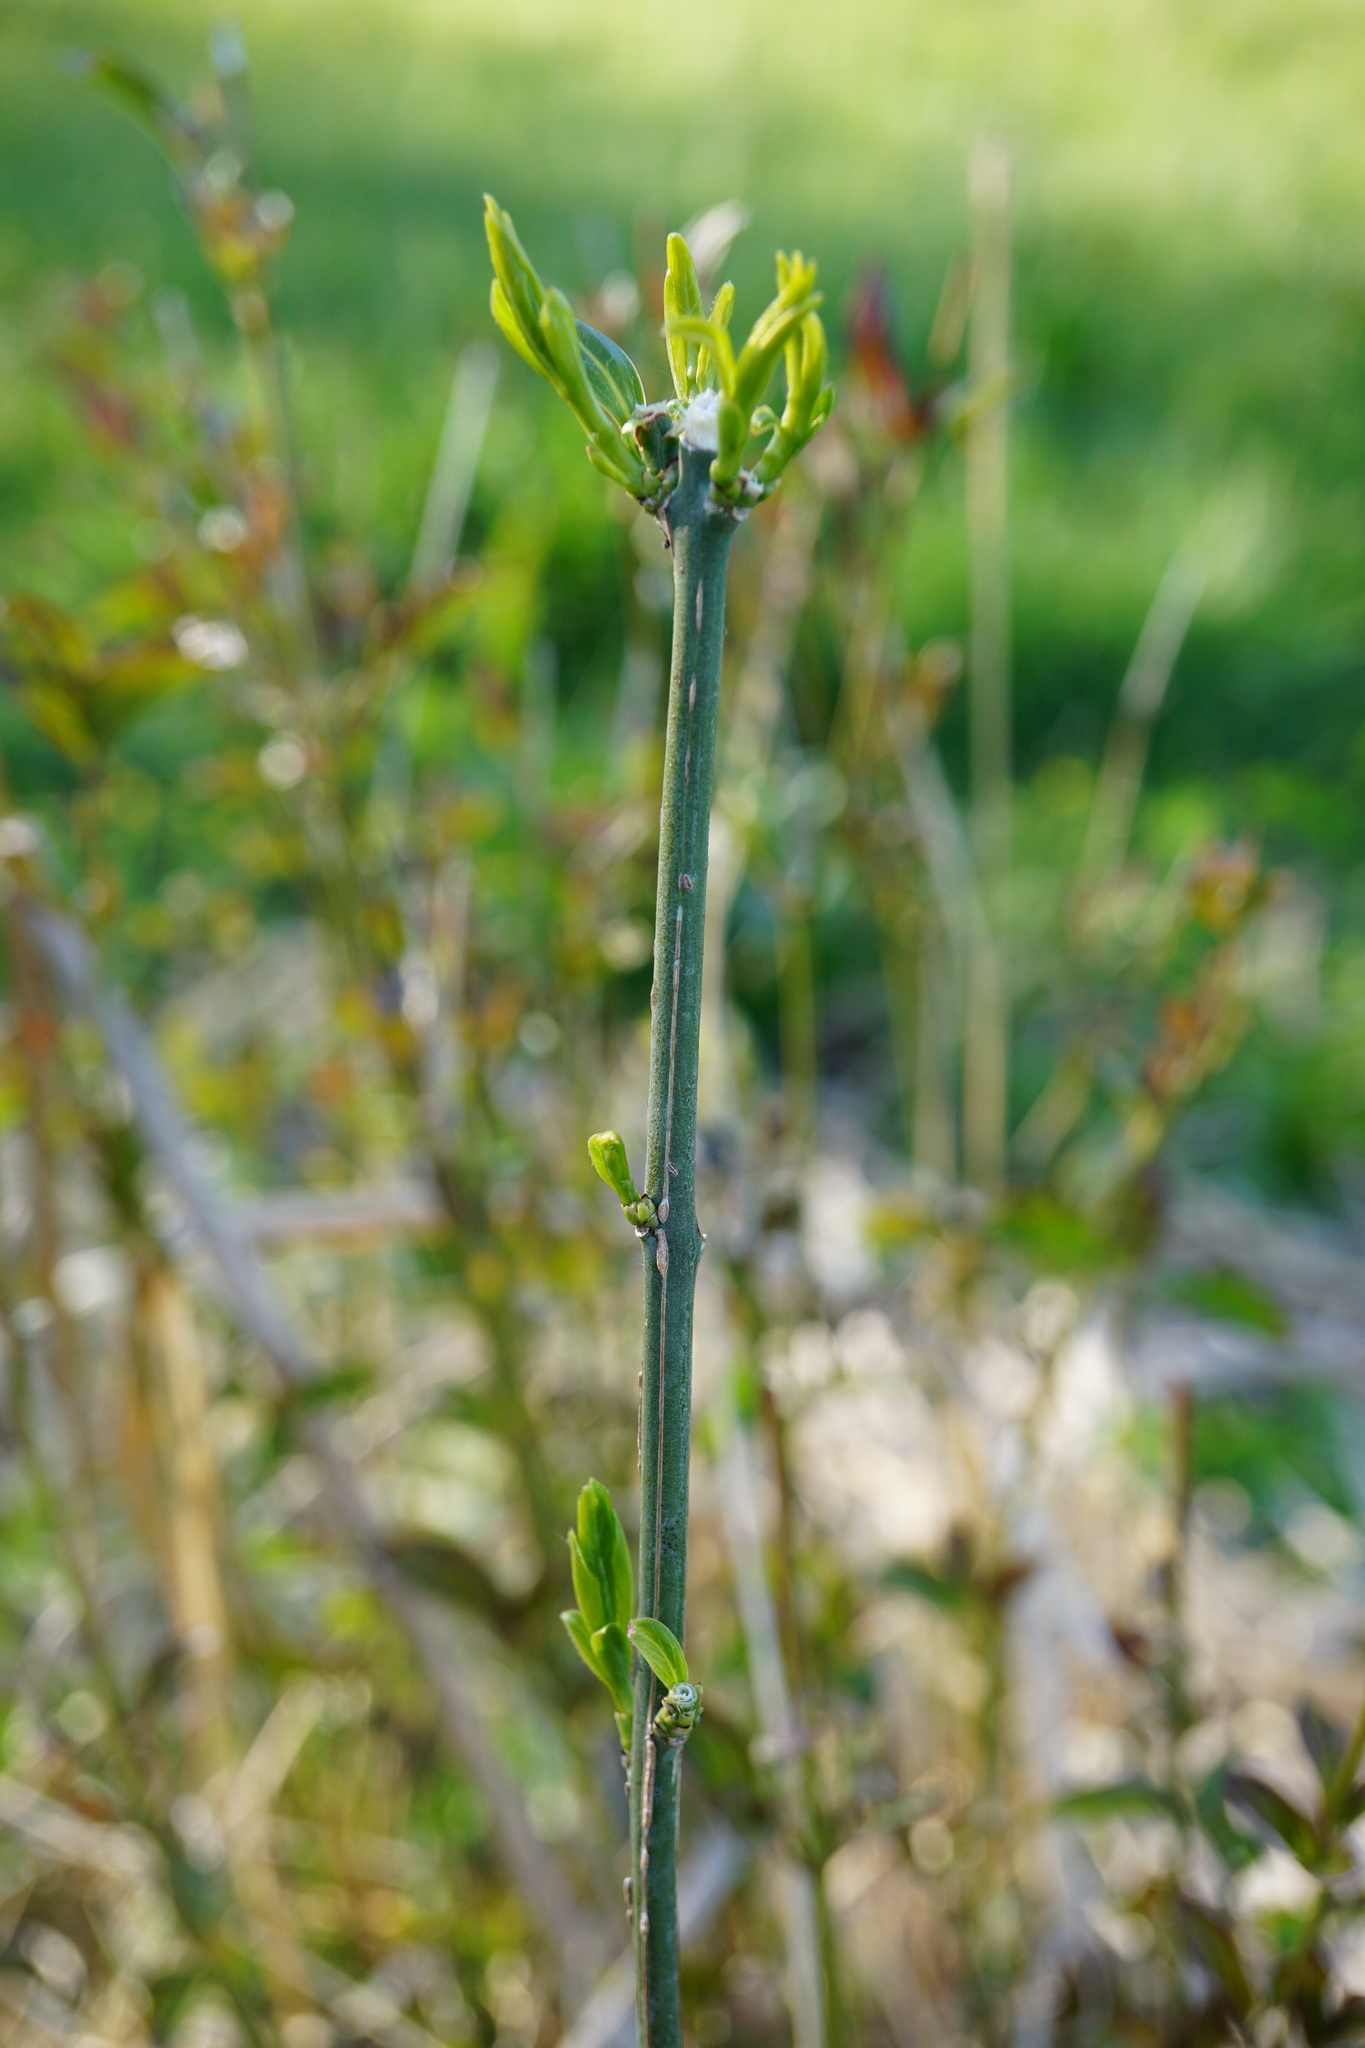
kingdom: Plantae
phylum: Tracheophyta
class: Magnoliopsida
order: Celastrales
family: Celastraceae
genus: Euonymus
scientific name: Euonymus europaeus
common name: Spindle
